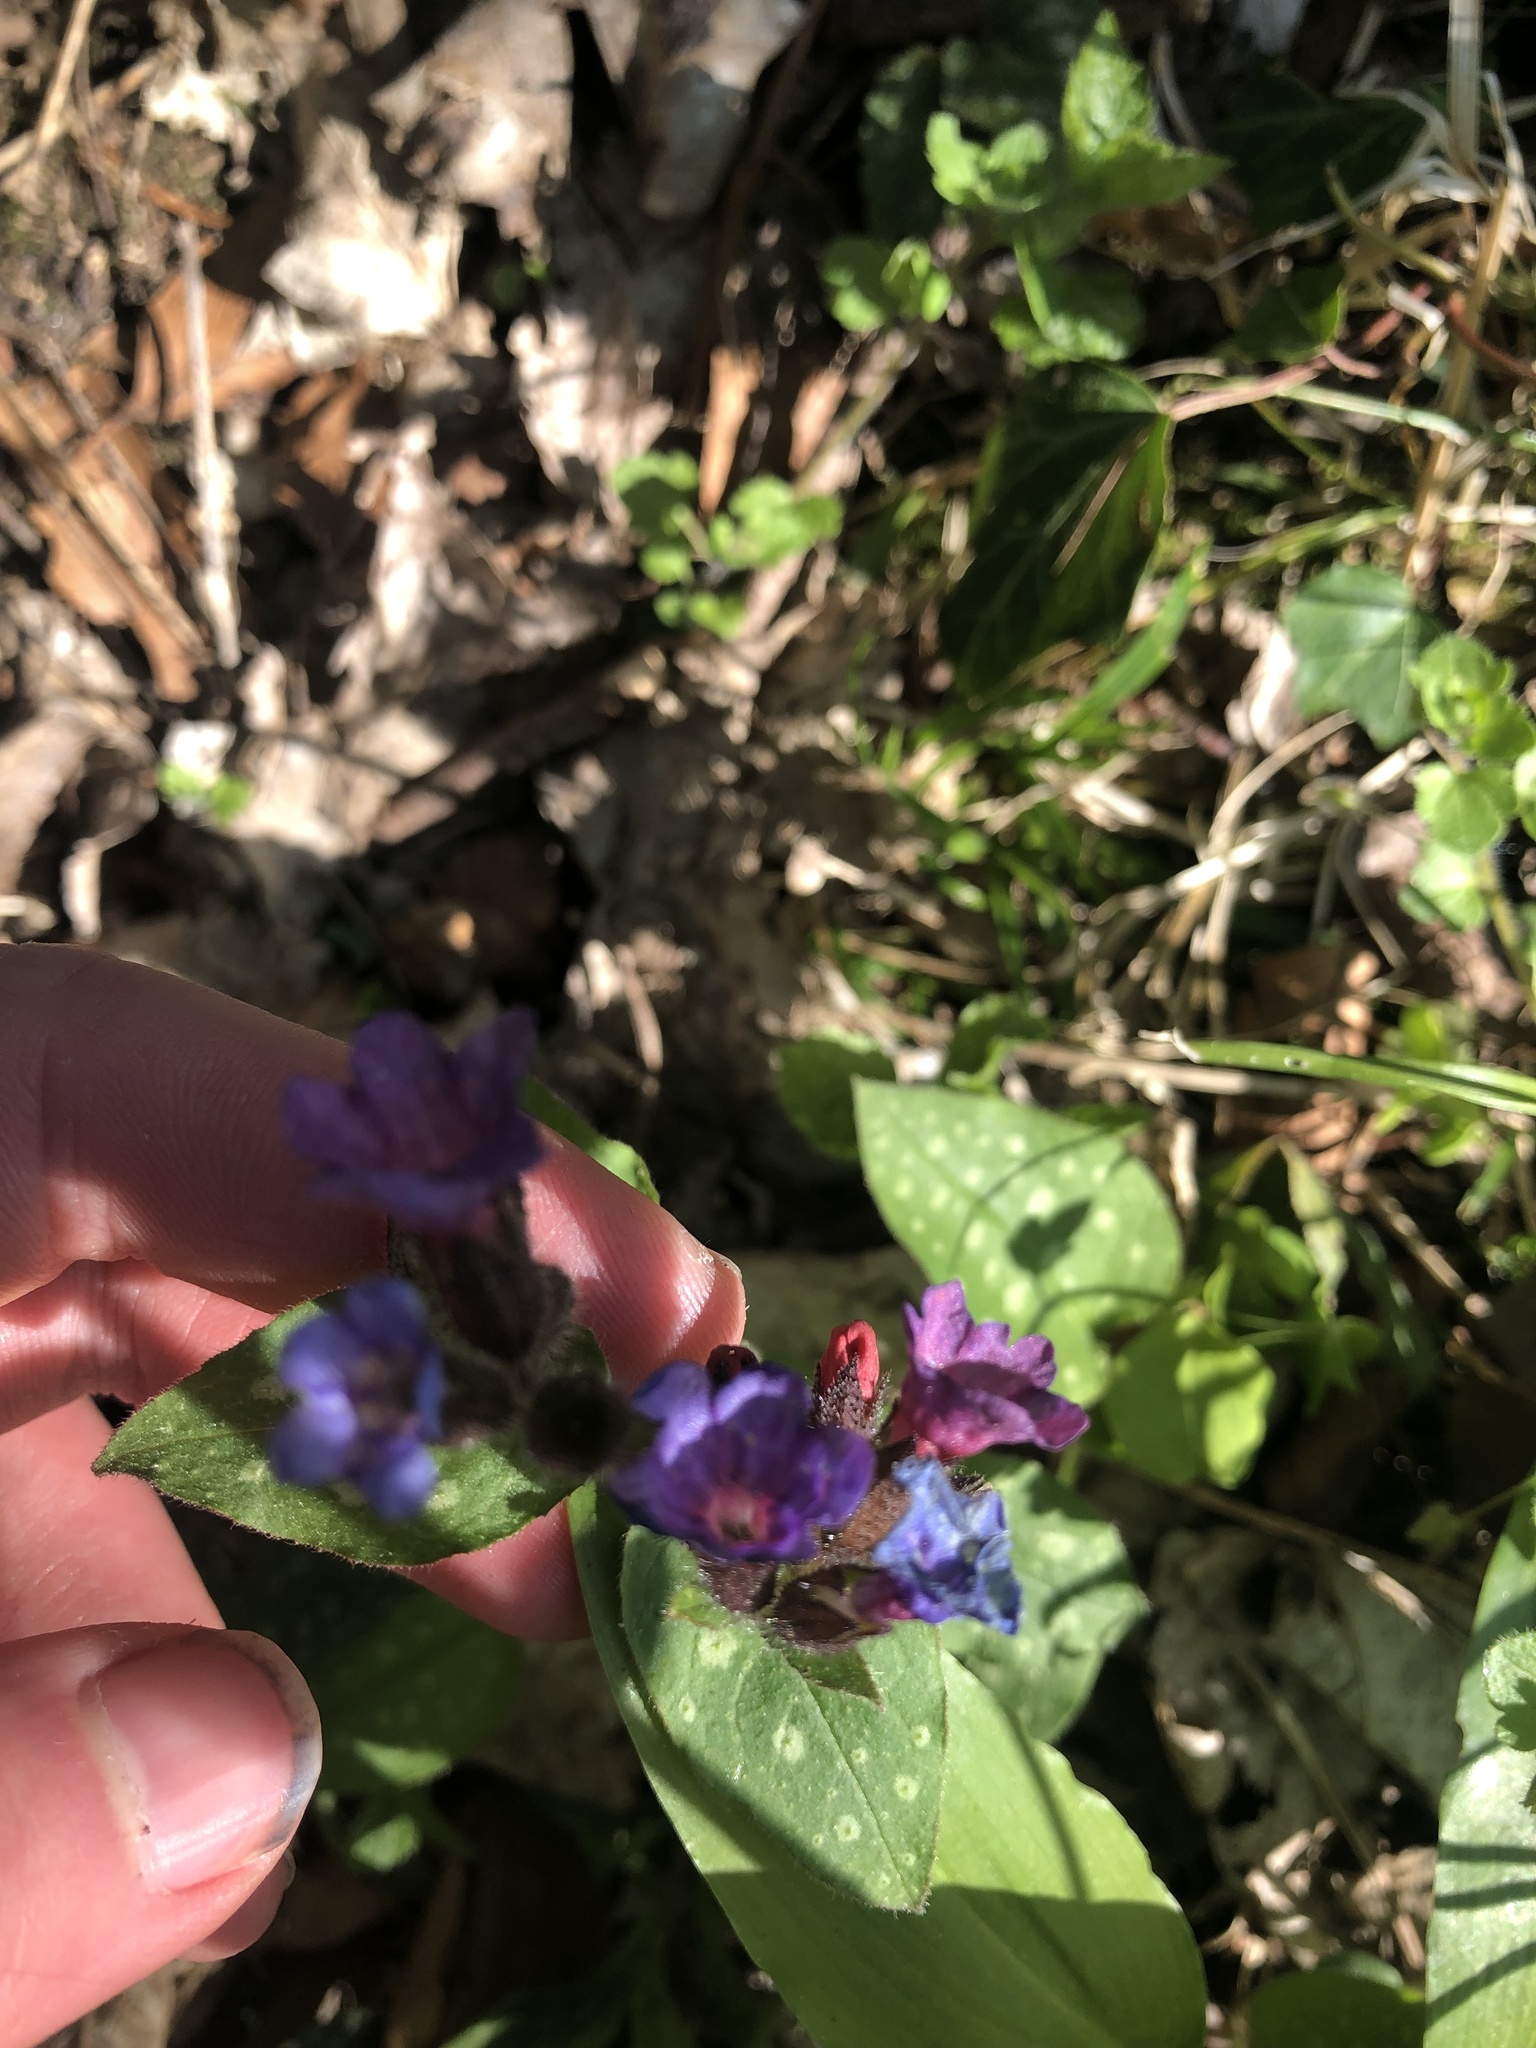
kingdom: Plantae
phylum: Tracheophyta
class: Magnoliopsida
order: Boraginales
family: Boraginaceae
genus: Pulmonaria
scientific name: Pulmonaria officinalis
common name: Lungwort
